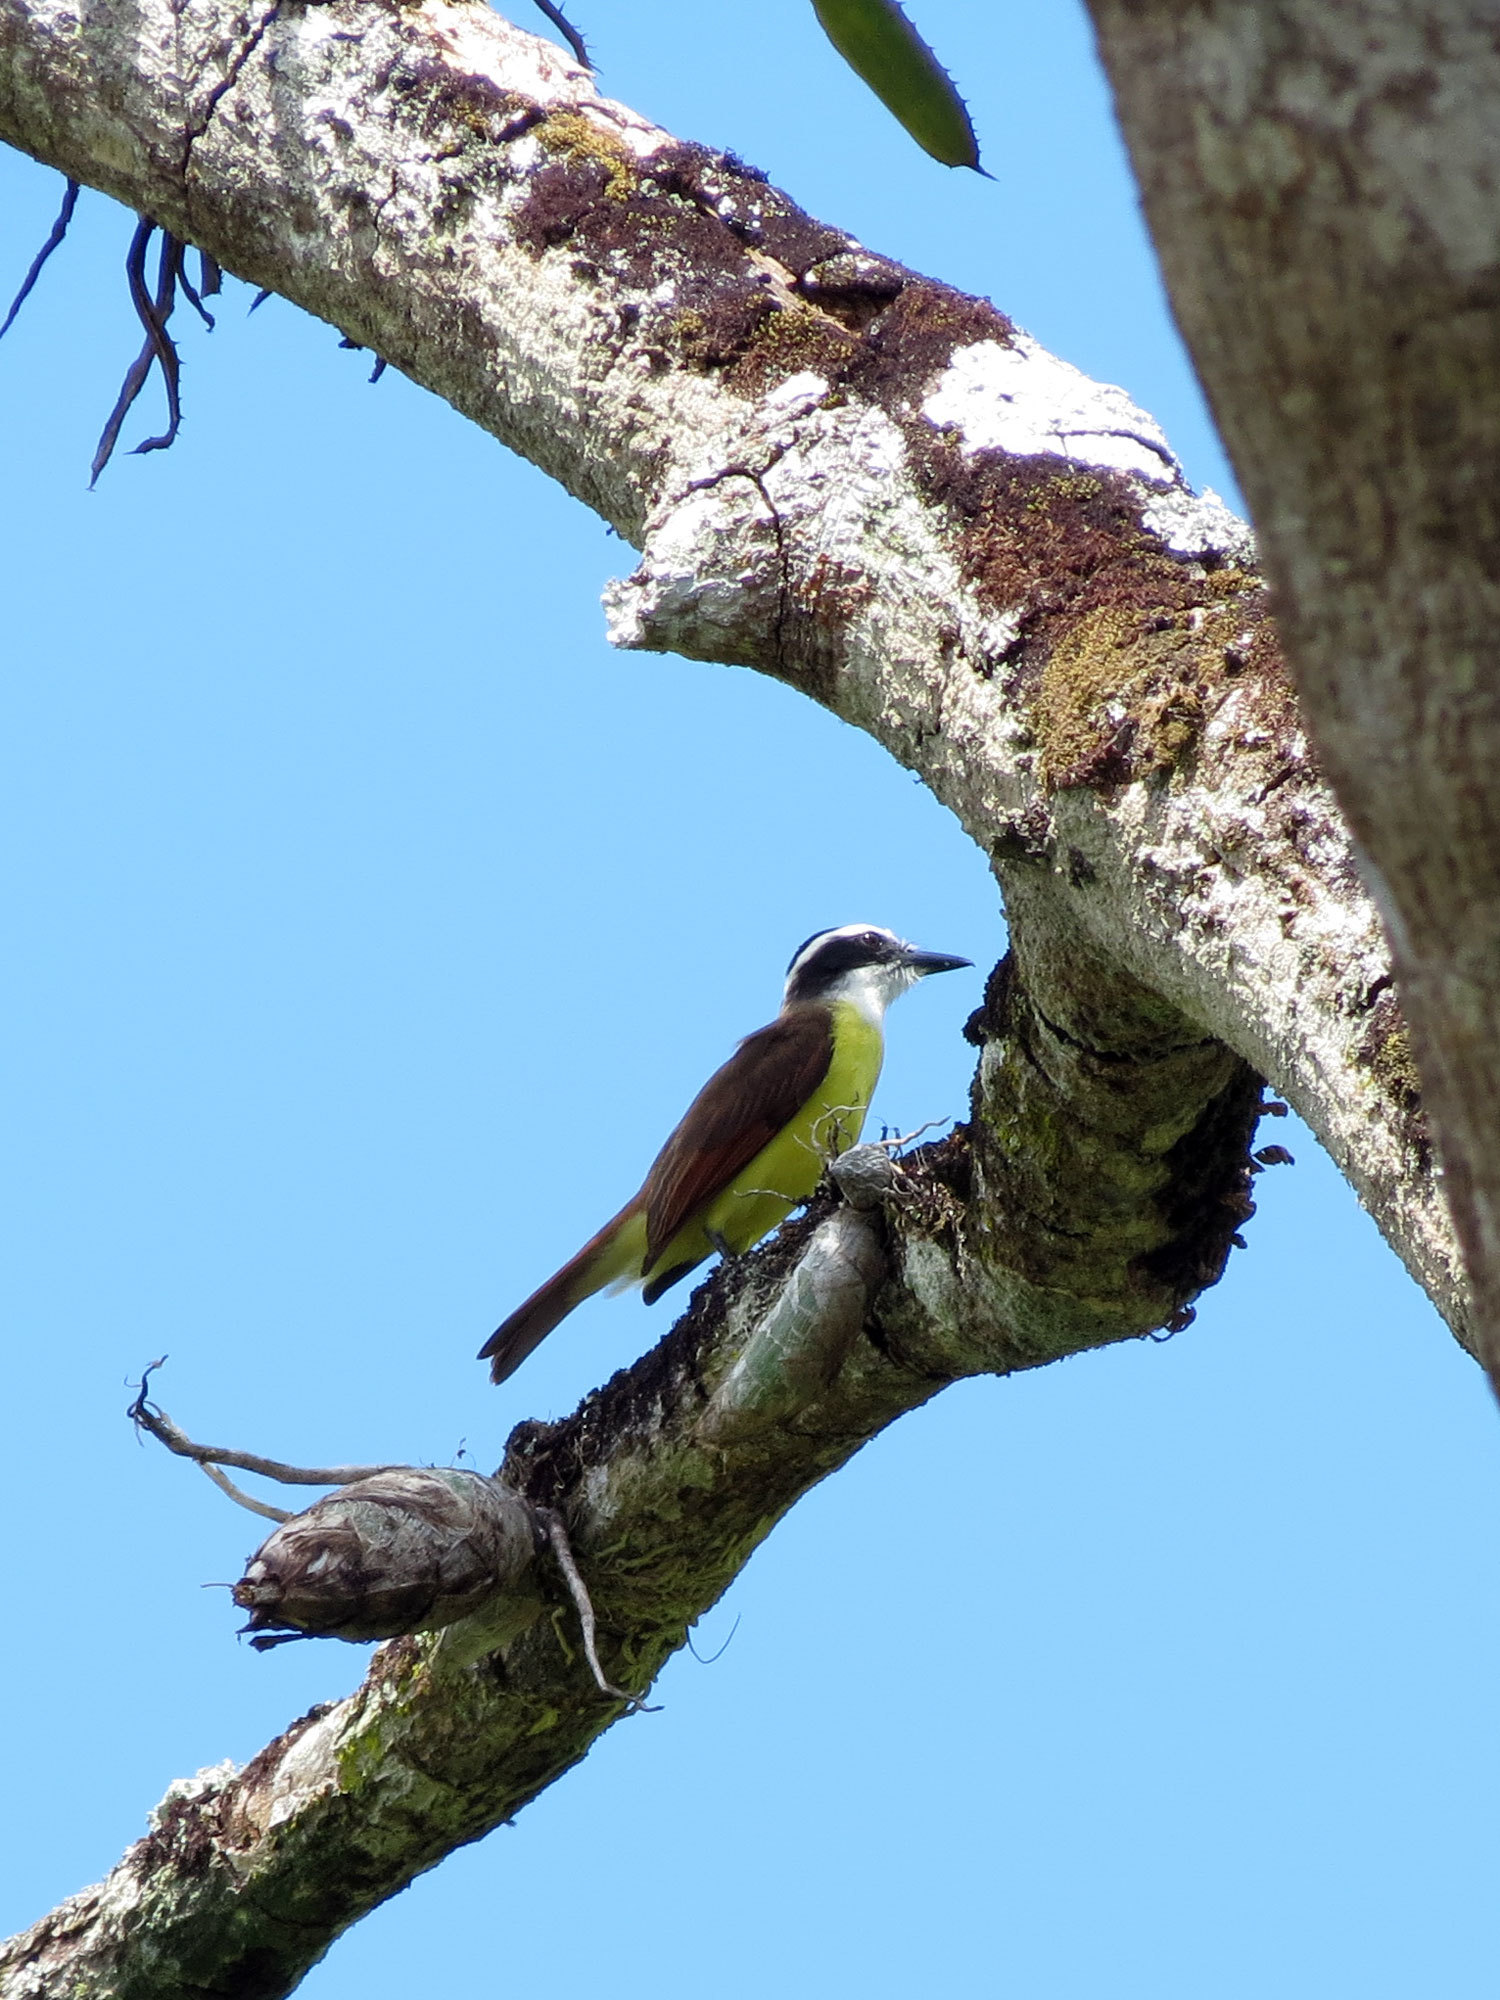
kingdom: Animalia
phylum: Chordata
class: Aves
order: Passeriformes
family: Tyrannidae
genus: Pitangus
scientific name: Pitangus sulphuratus
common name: Great kiskadee
